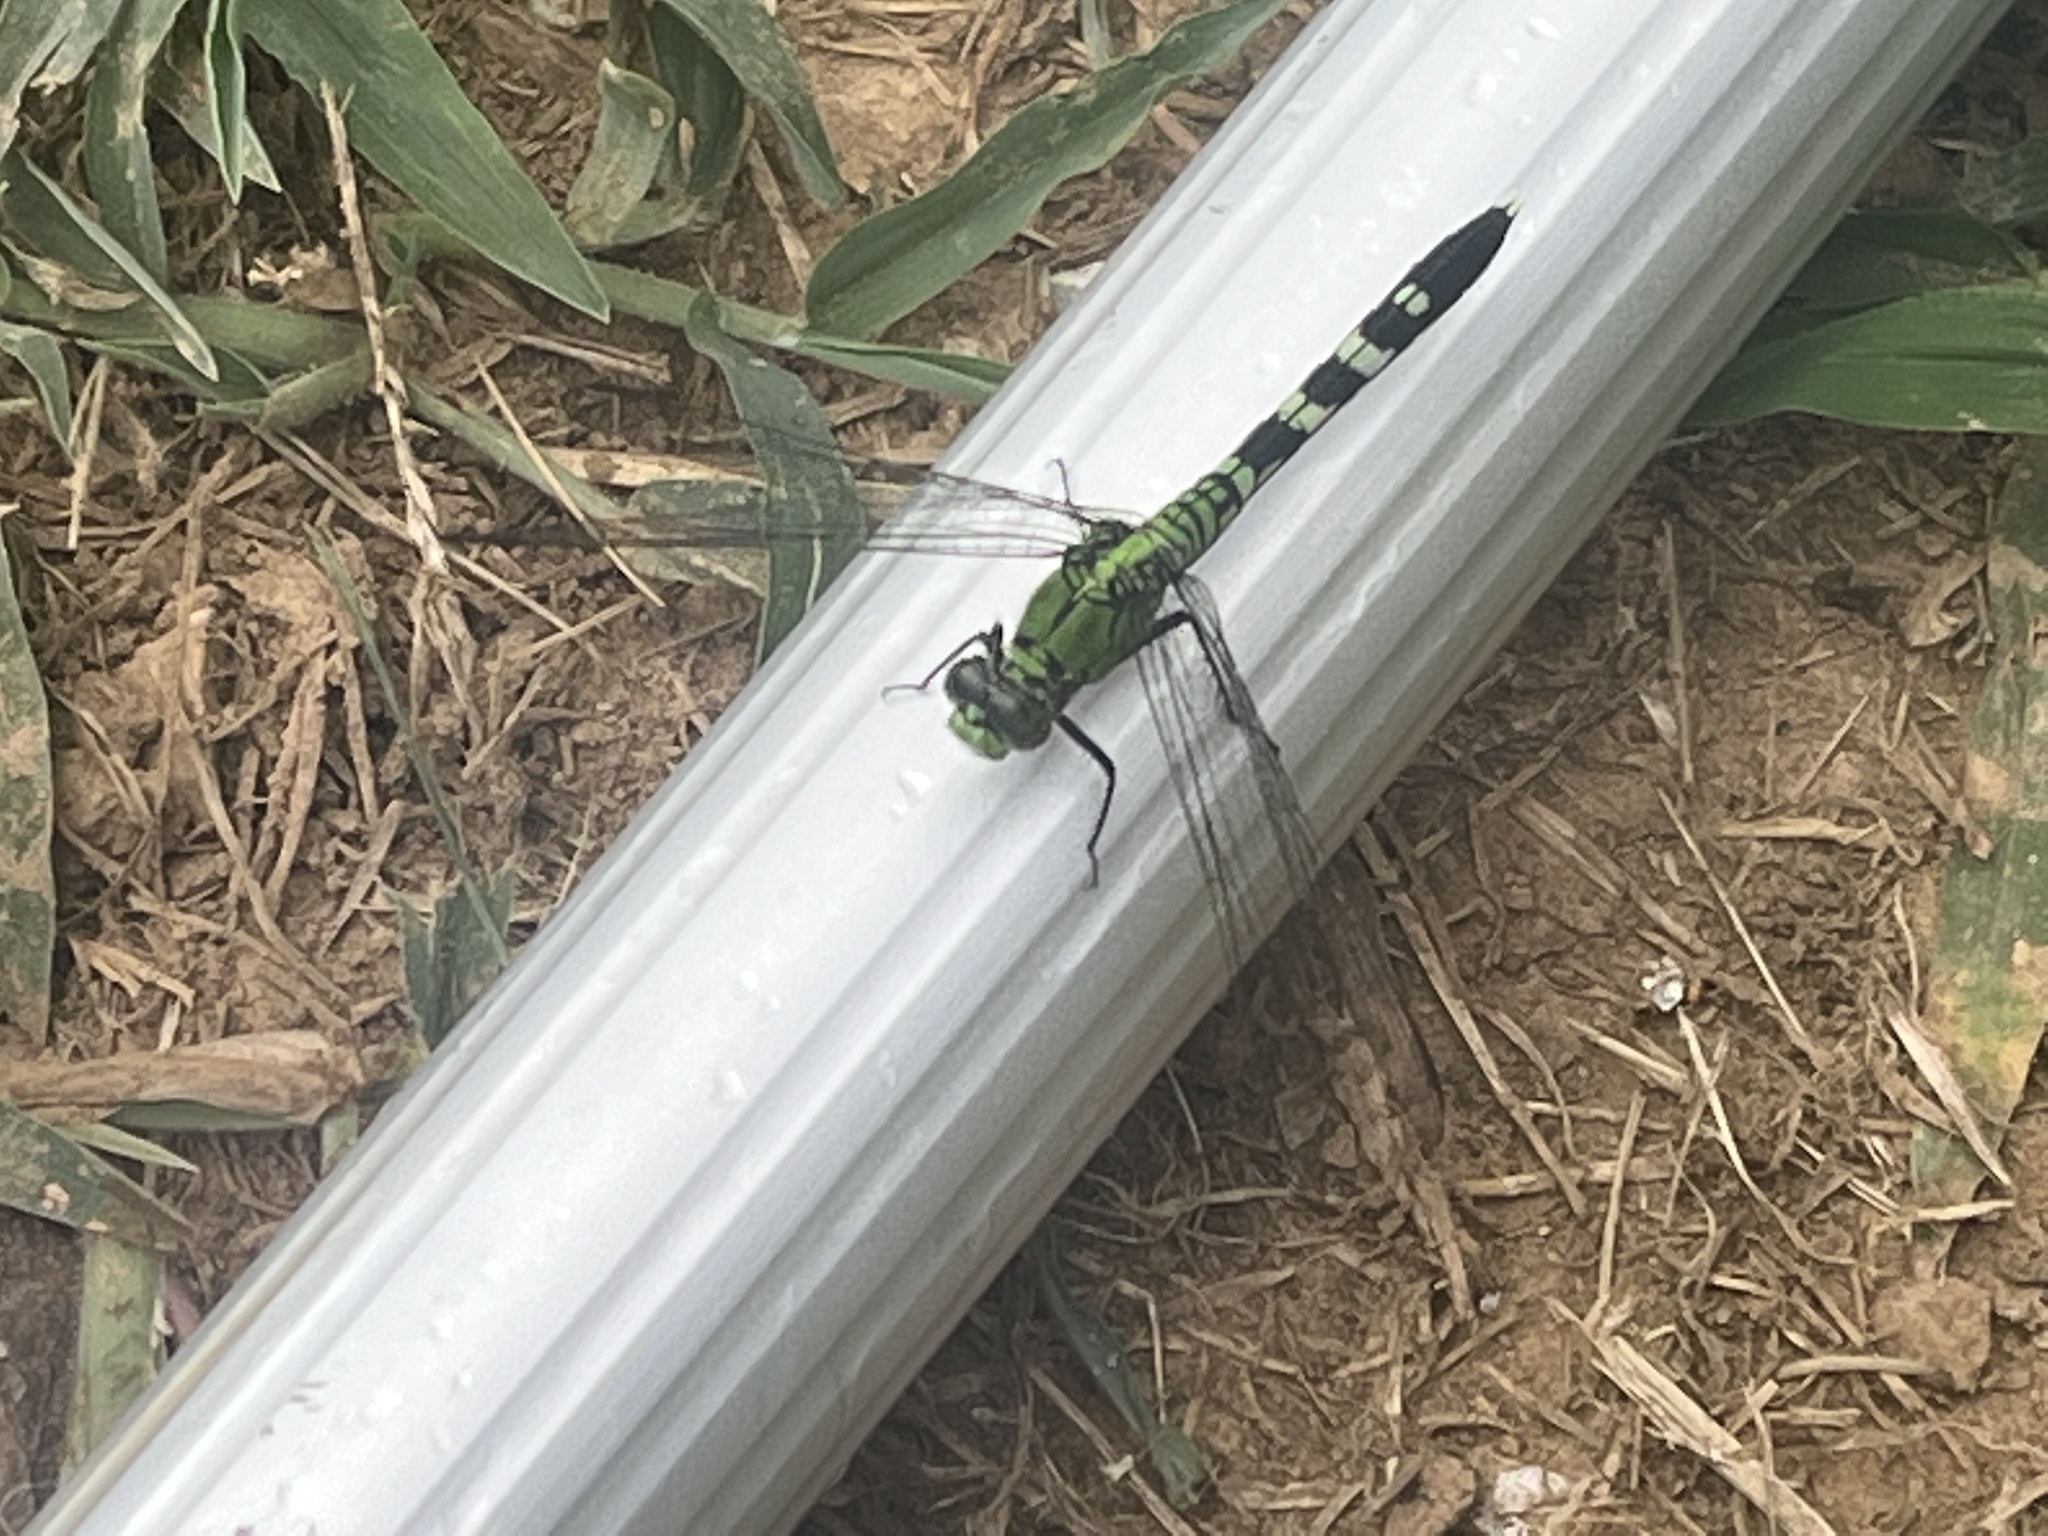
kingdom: Animalia
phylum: Arthropoda
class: Insecta
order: Odonata
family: Libellulidae
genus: Erythemis
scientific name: Erythemis simplicicollis
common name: Eastern pondhawk
